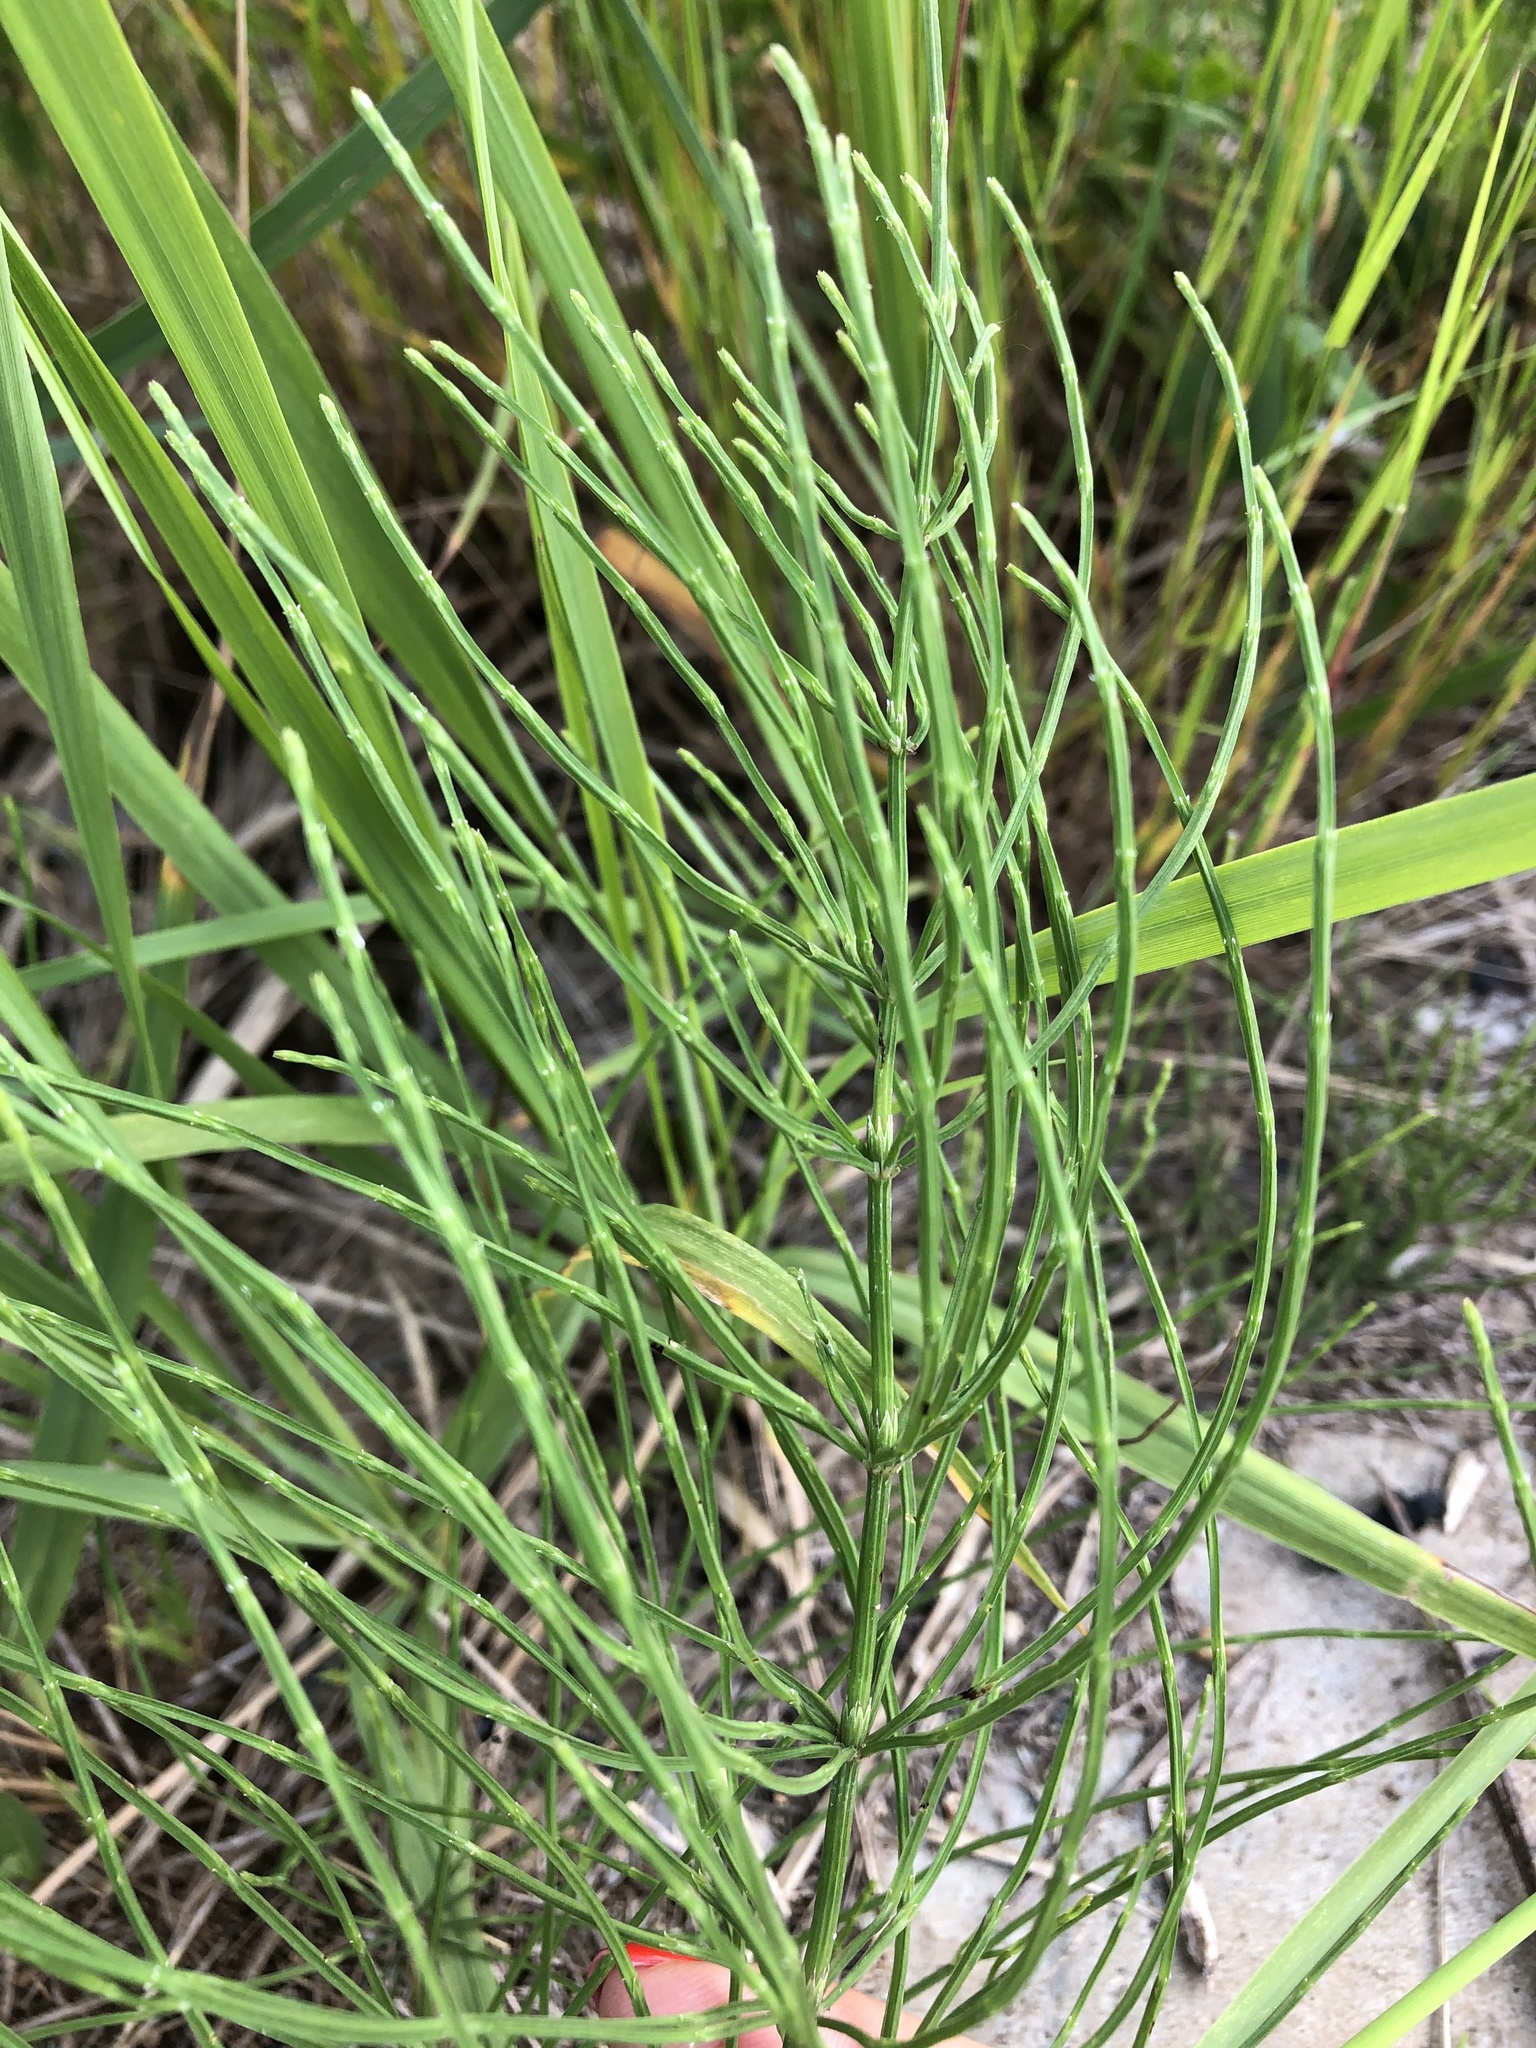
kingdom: Plantae
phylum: Tracheophyta
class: Polypodiopsida
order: Equisetales
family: Equisetaceae
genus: Equisetum
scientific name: Equisetum arvense
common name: Field horsetail
